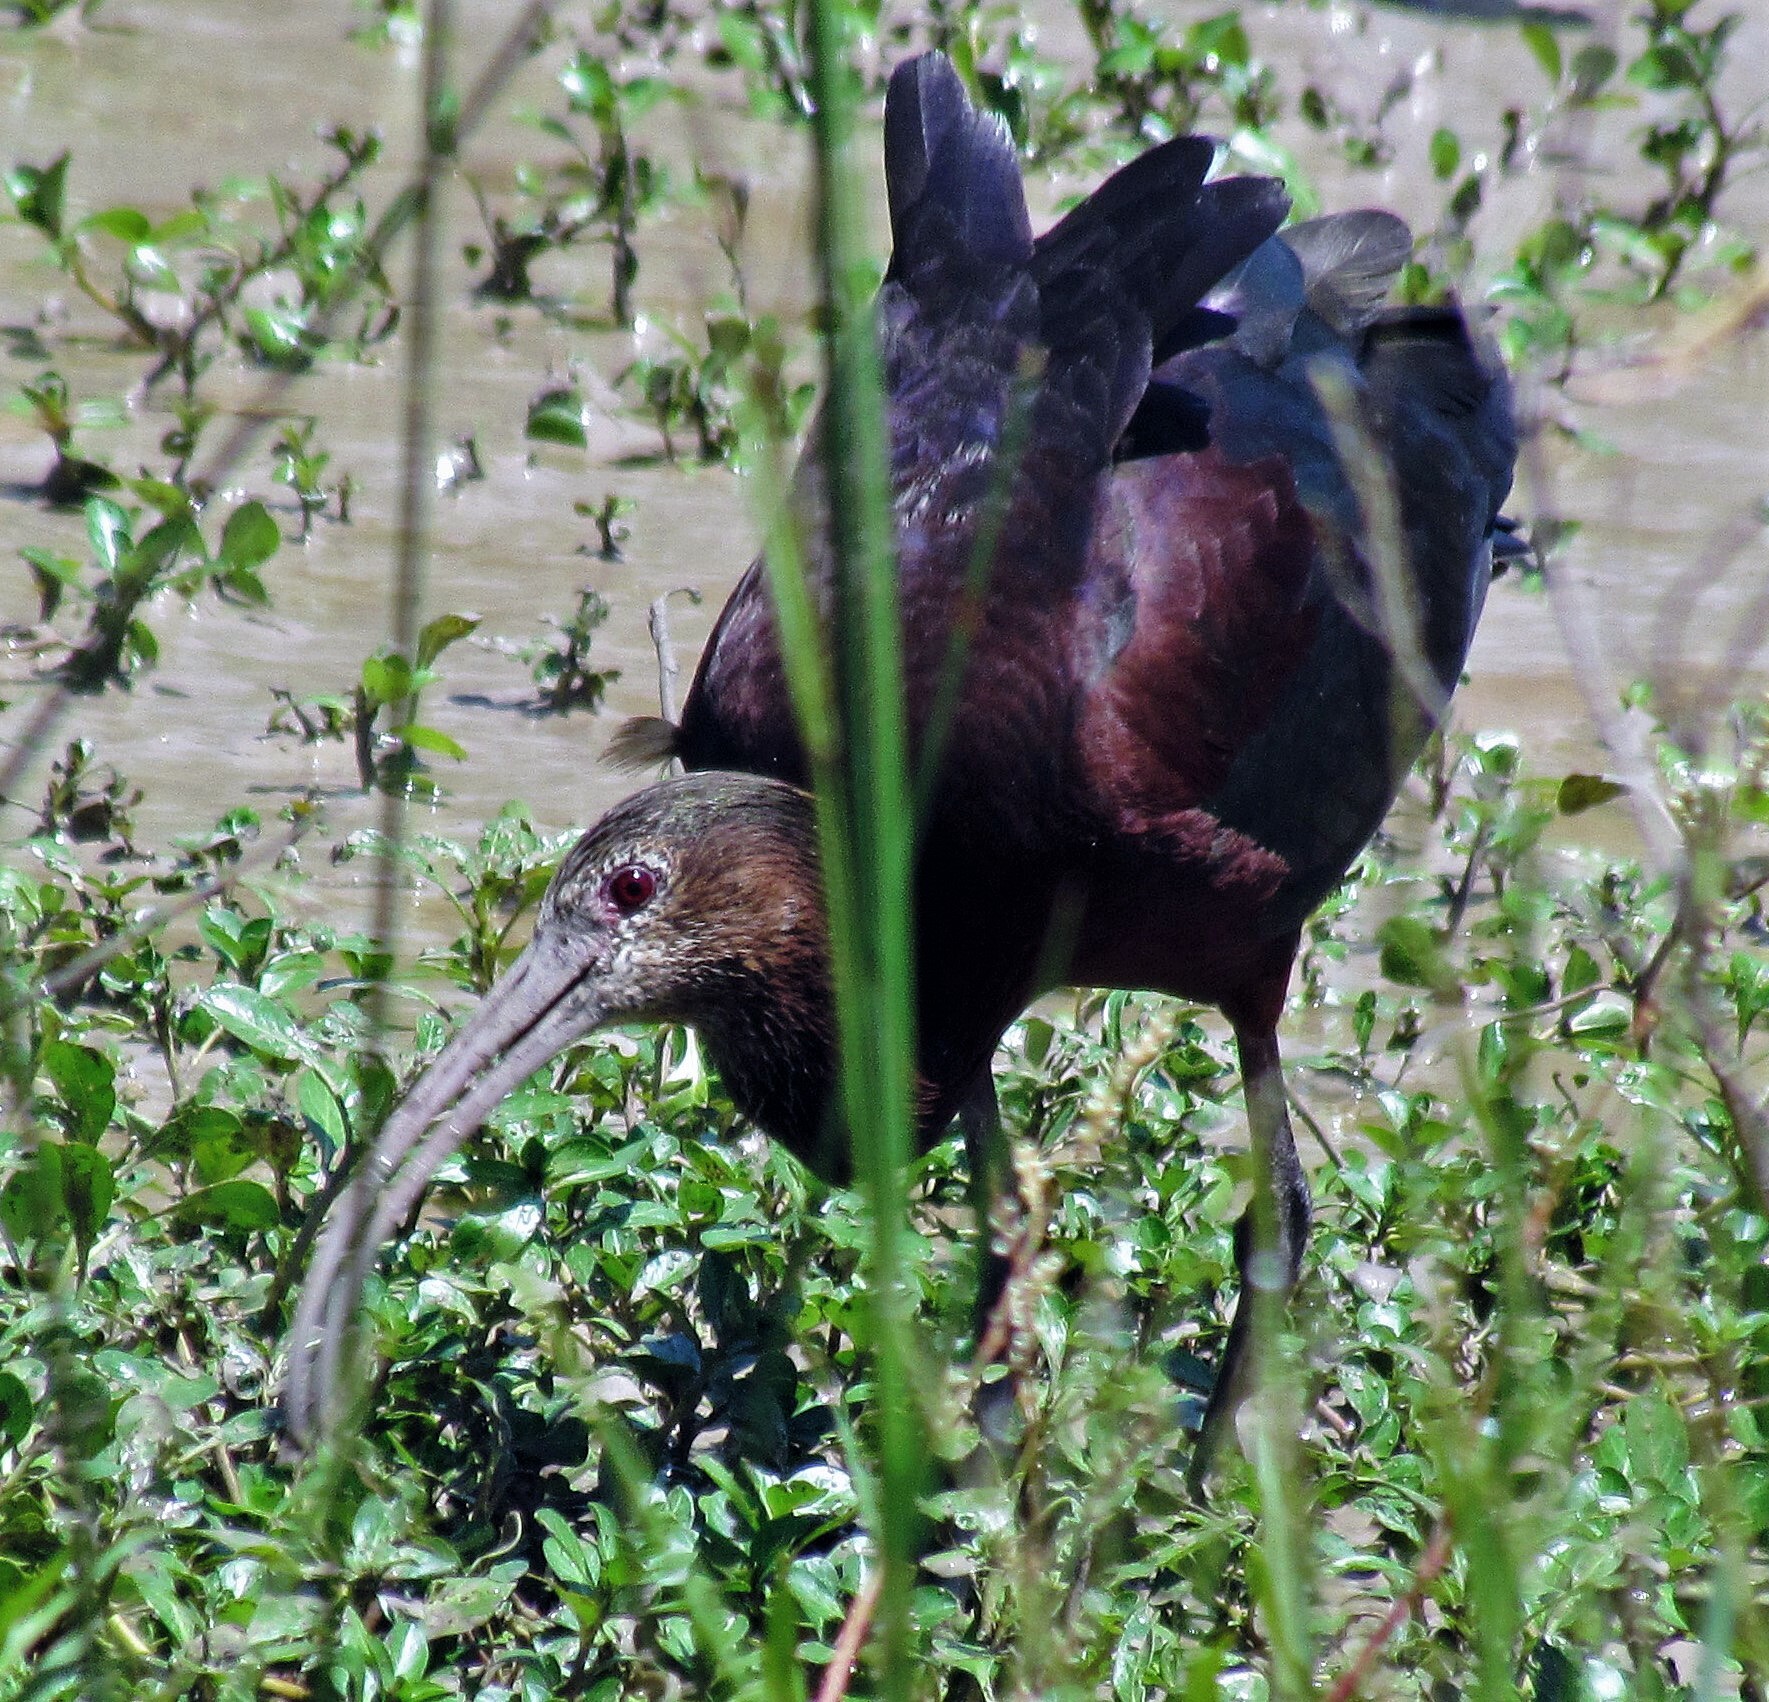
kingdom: Animalia
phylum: Chordata
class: Aves
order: Pelecaniformes
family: Threskiornithidae
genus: Plegadis
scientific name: Plegadis chihi
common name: White-faced ibis
